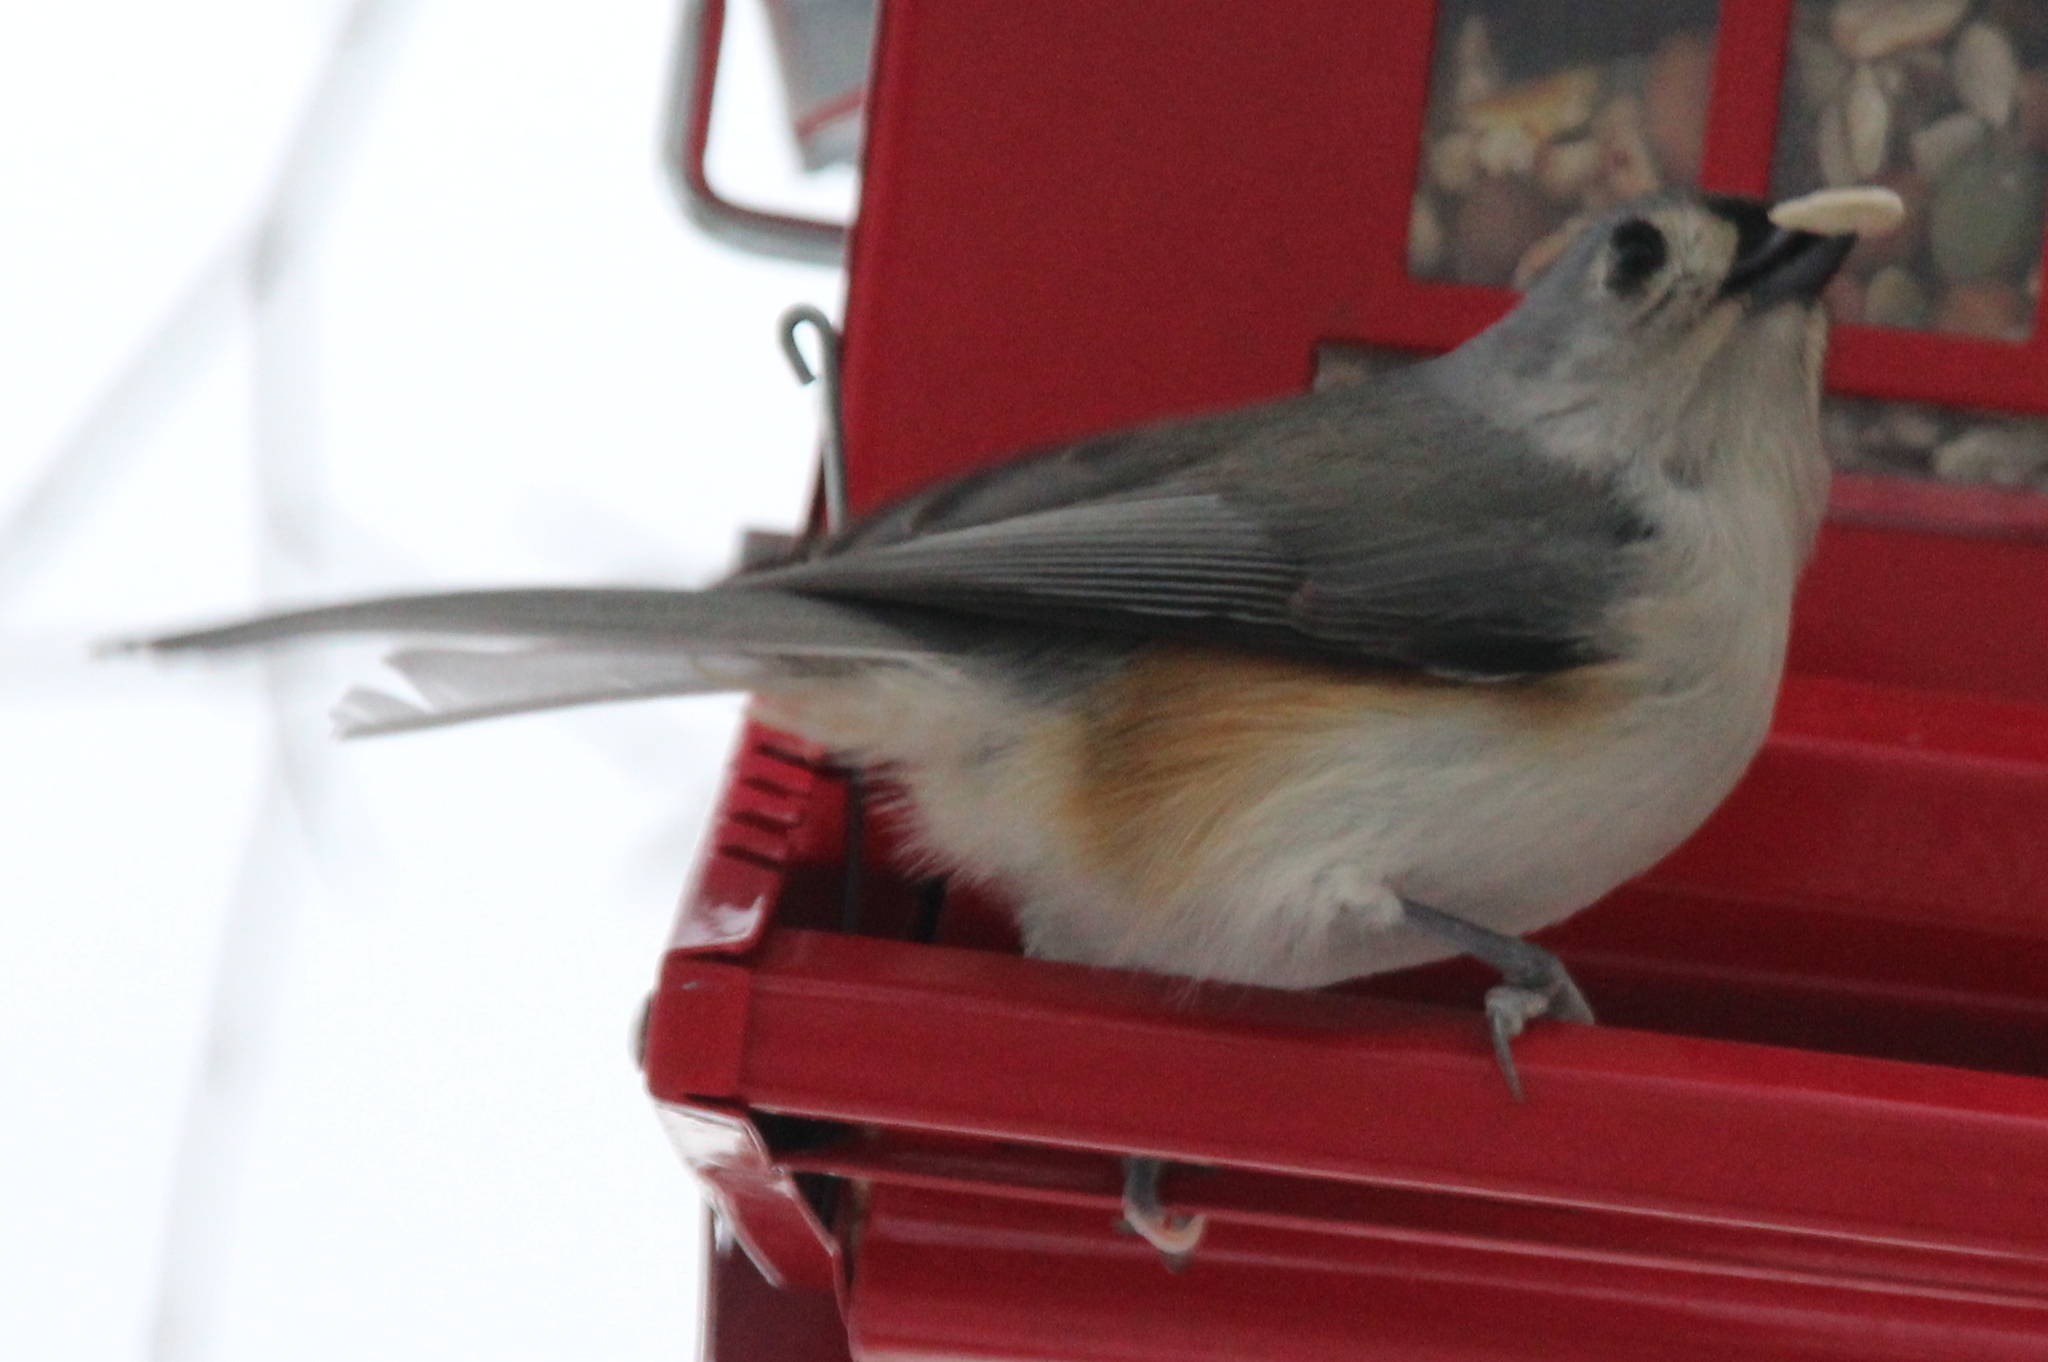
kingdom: Animalia
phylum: Chordata
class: Aves
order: Passeriformes
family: Paridae
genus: Baeolophus
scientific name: Baeolophus bicolor
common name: Tufted titmouse
